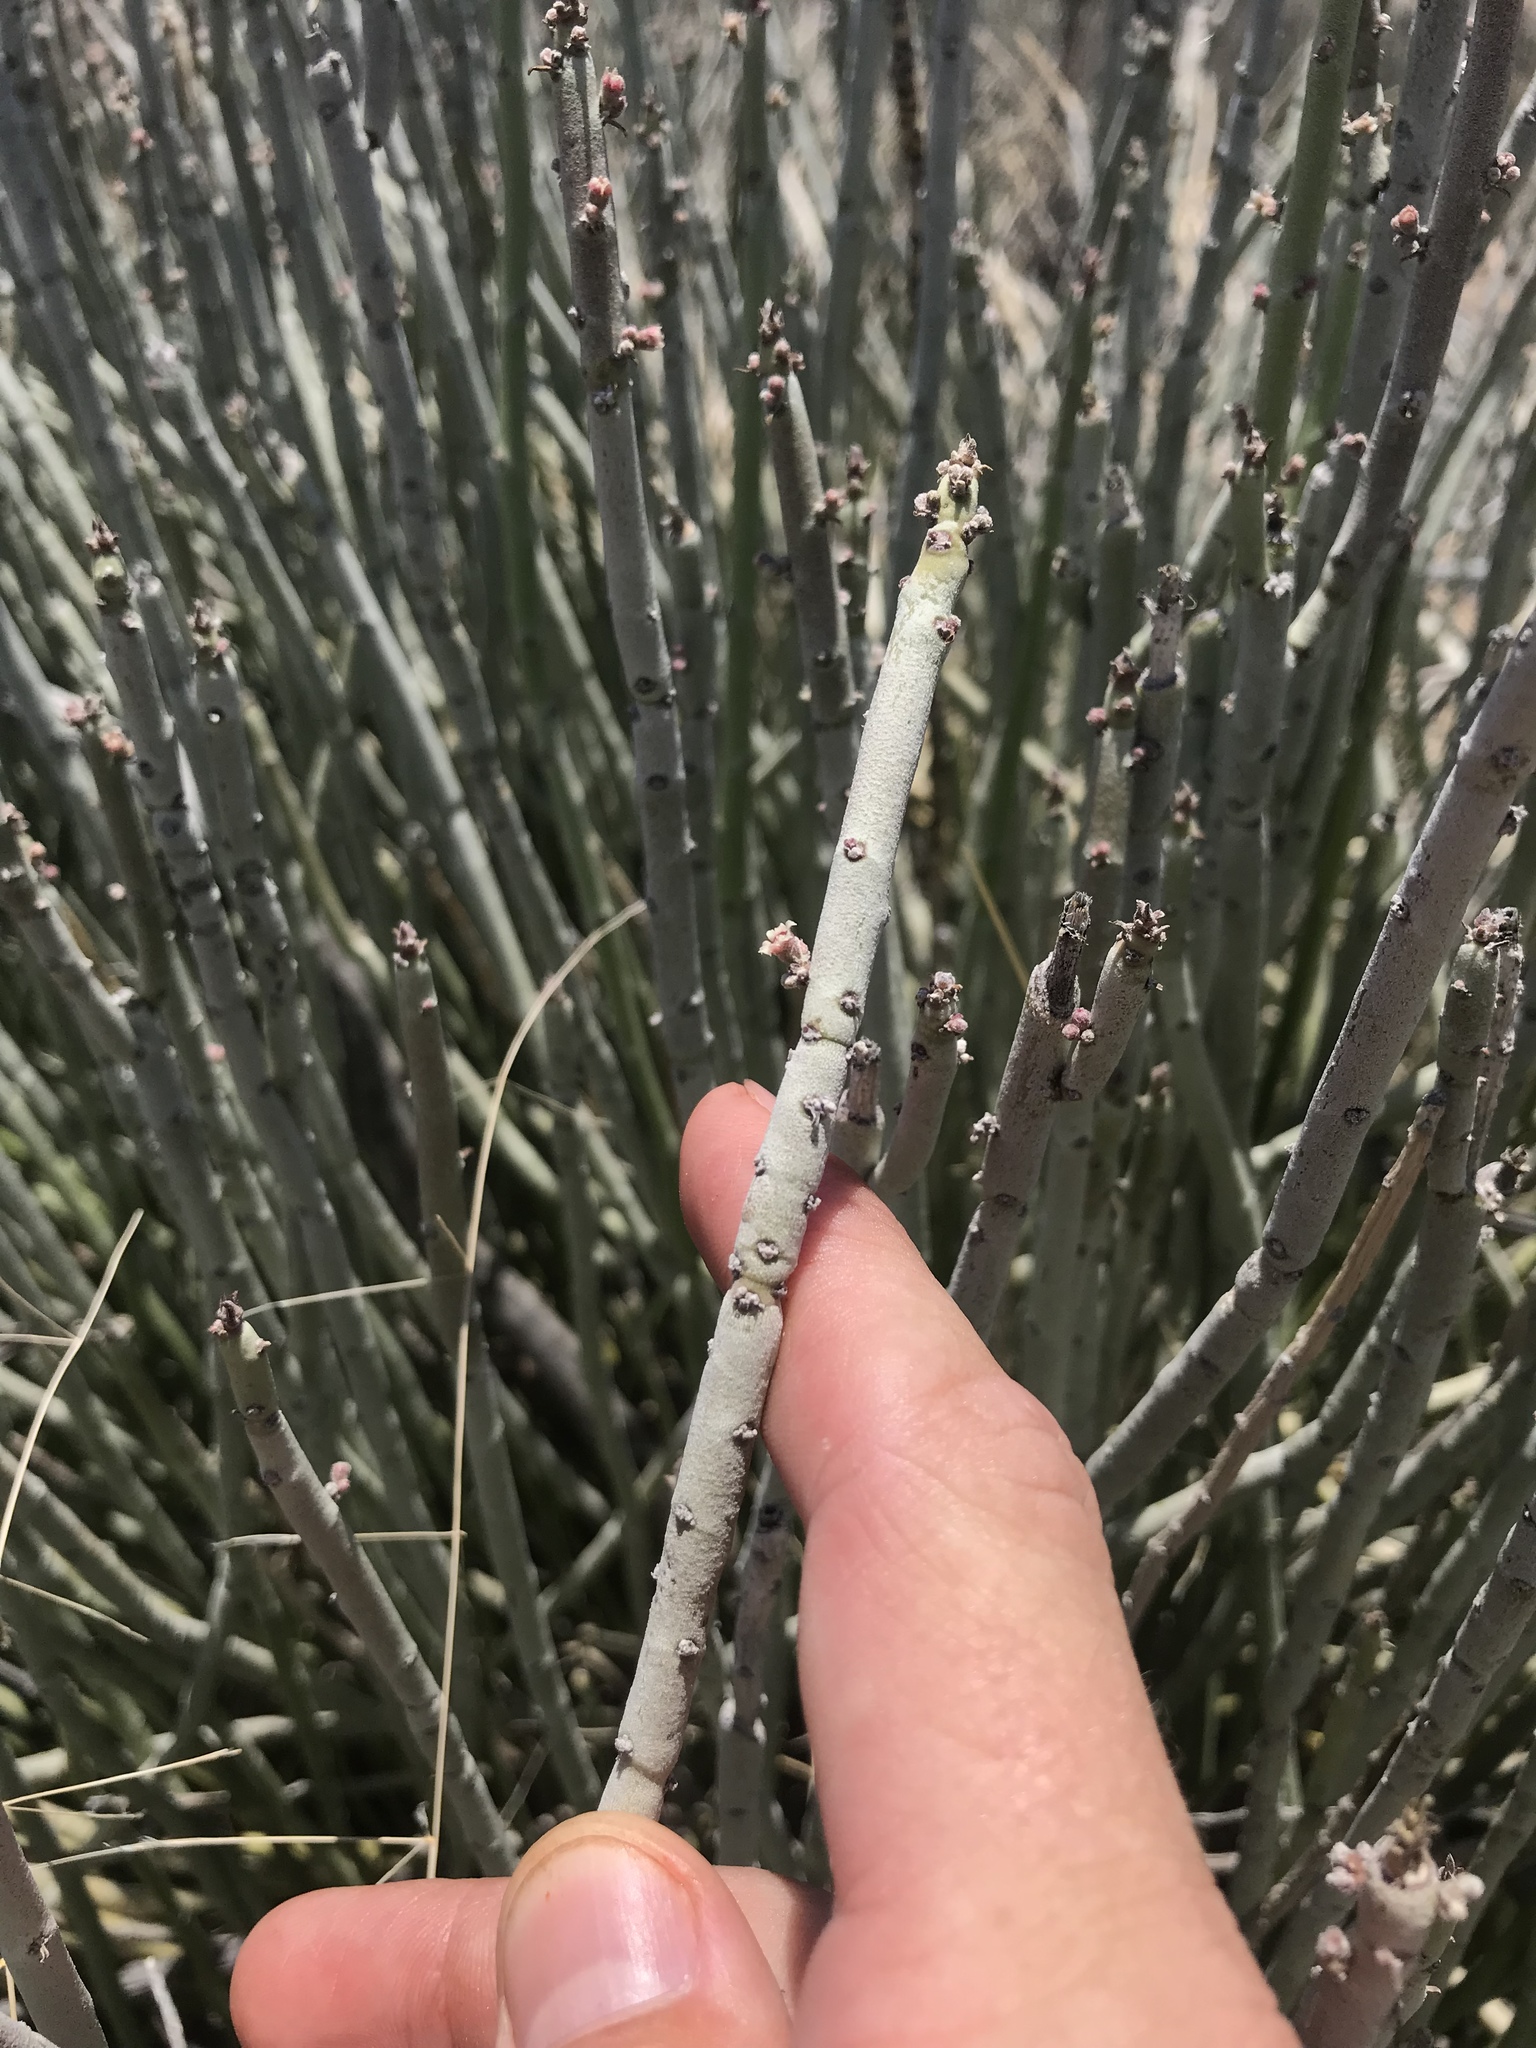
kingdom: Plantae
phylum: Tracheophyta
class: Magnoliopsida
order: Malpighiales
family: Euphorbiaceae
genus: Euphorbia
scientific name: Euphorbia antisyphilitica
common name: Candelilla
